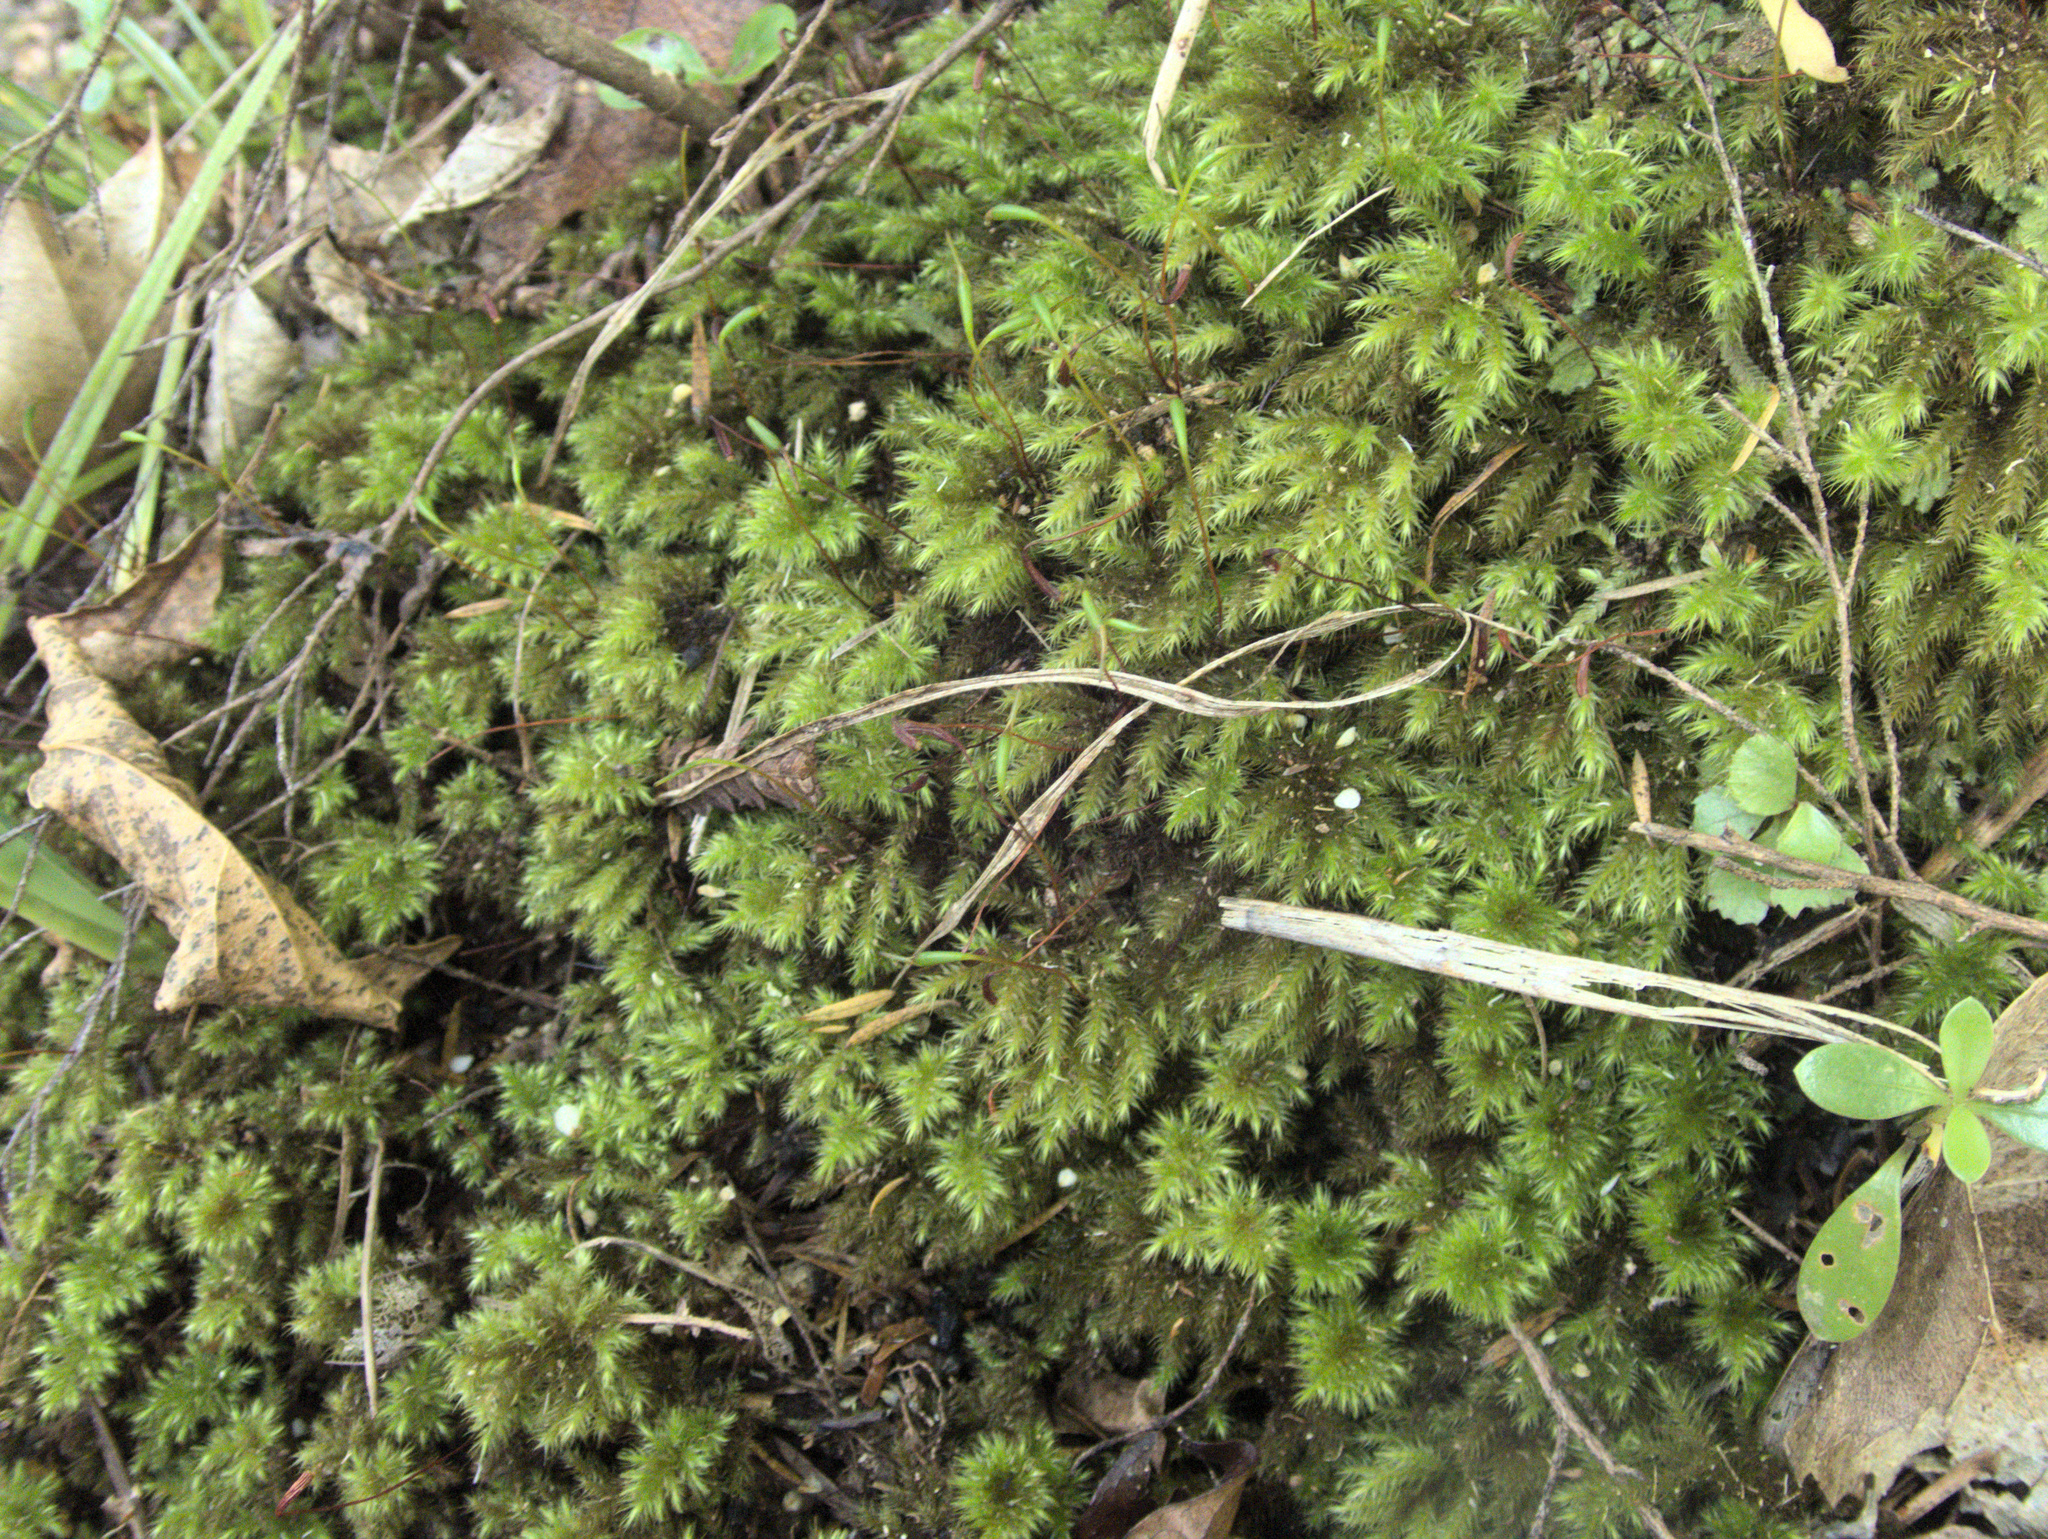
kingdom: Plantae
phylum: Bryophyta
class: Bryopsida
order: Hypnodendrales
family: Spiridentaceae
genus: Mniodendron
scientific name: Mniodendron colensoi
